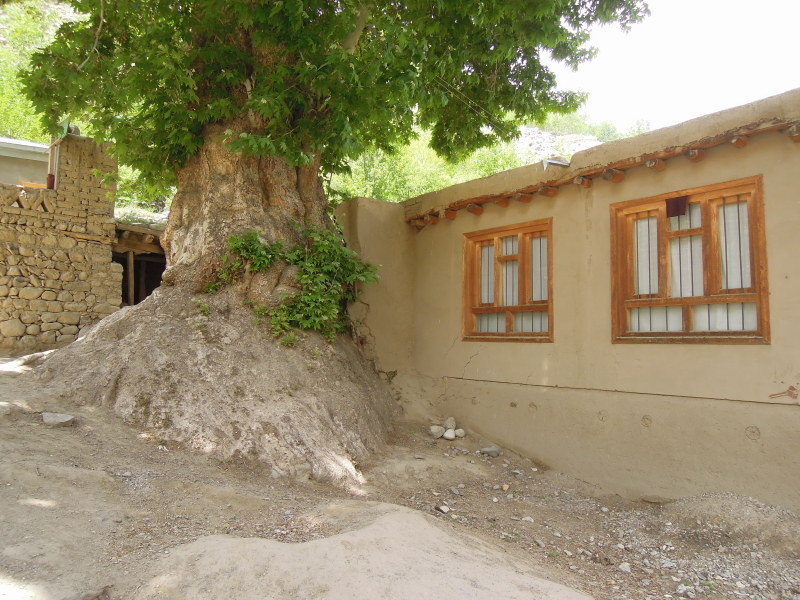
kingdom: Plantae
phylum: Tracheophyta
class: Magnoliopsida
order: Proteales
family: Platanaceae
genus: Platanus
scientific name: Platanus orientalis
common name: Oriental plane
